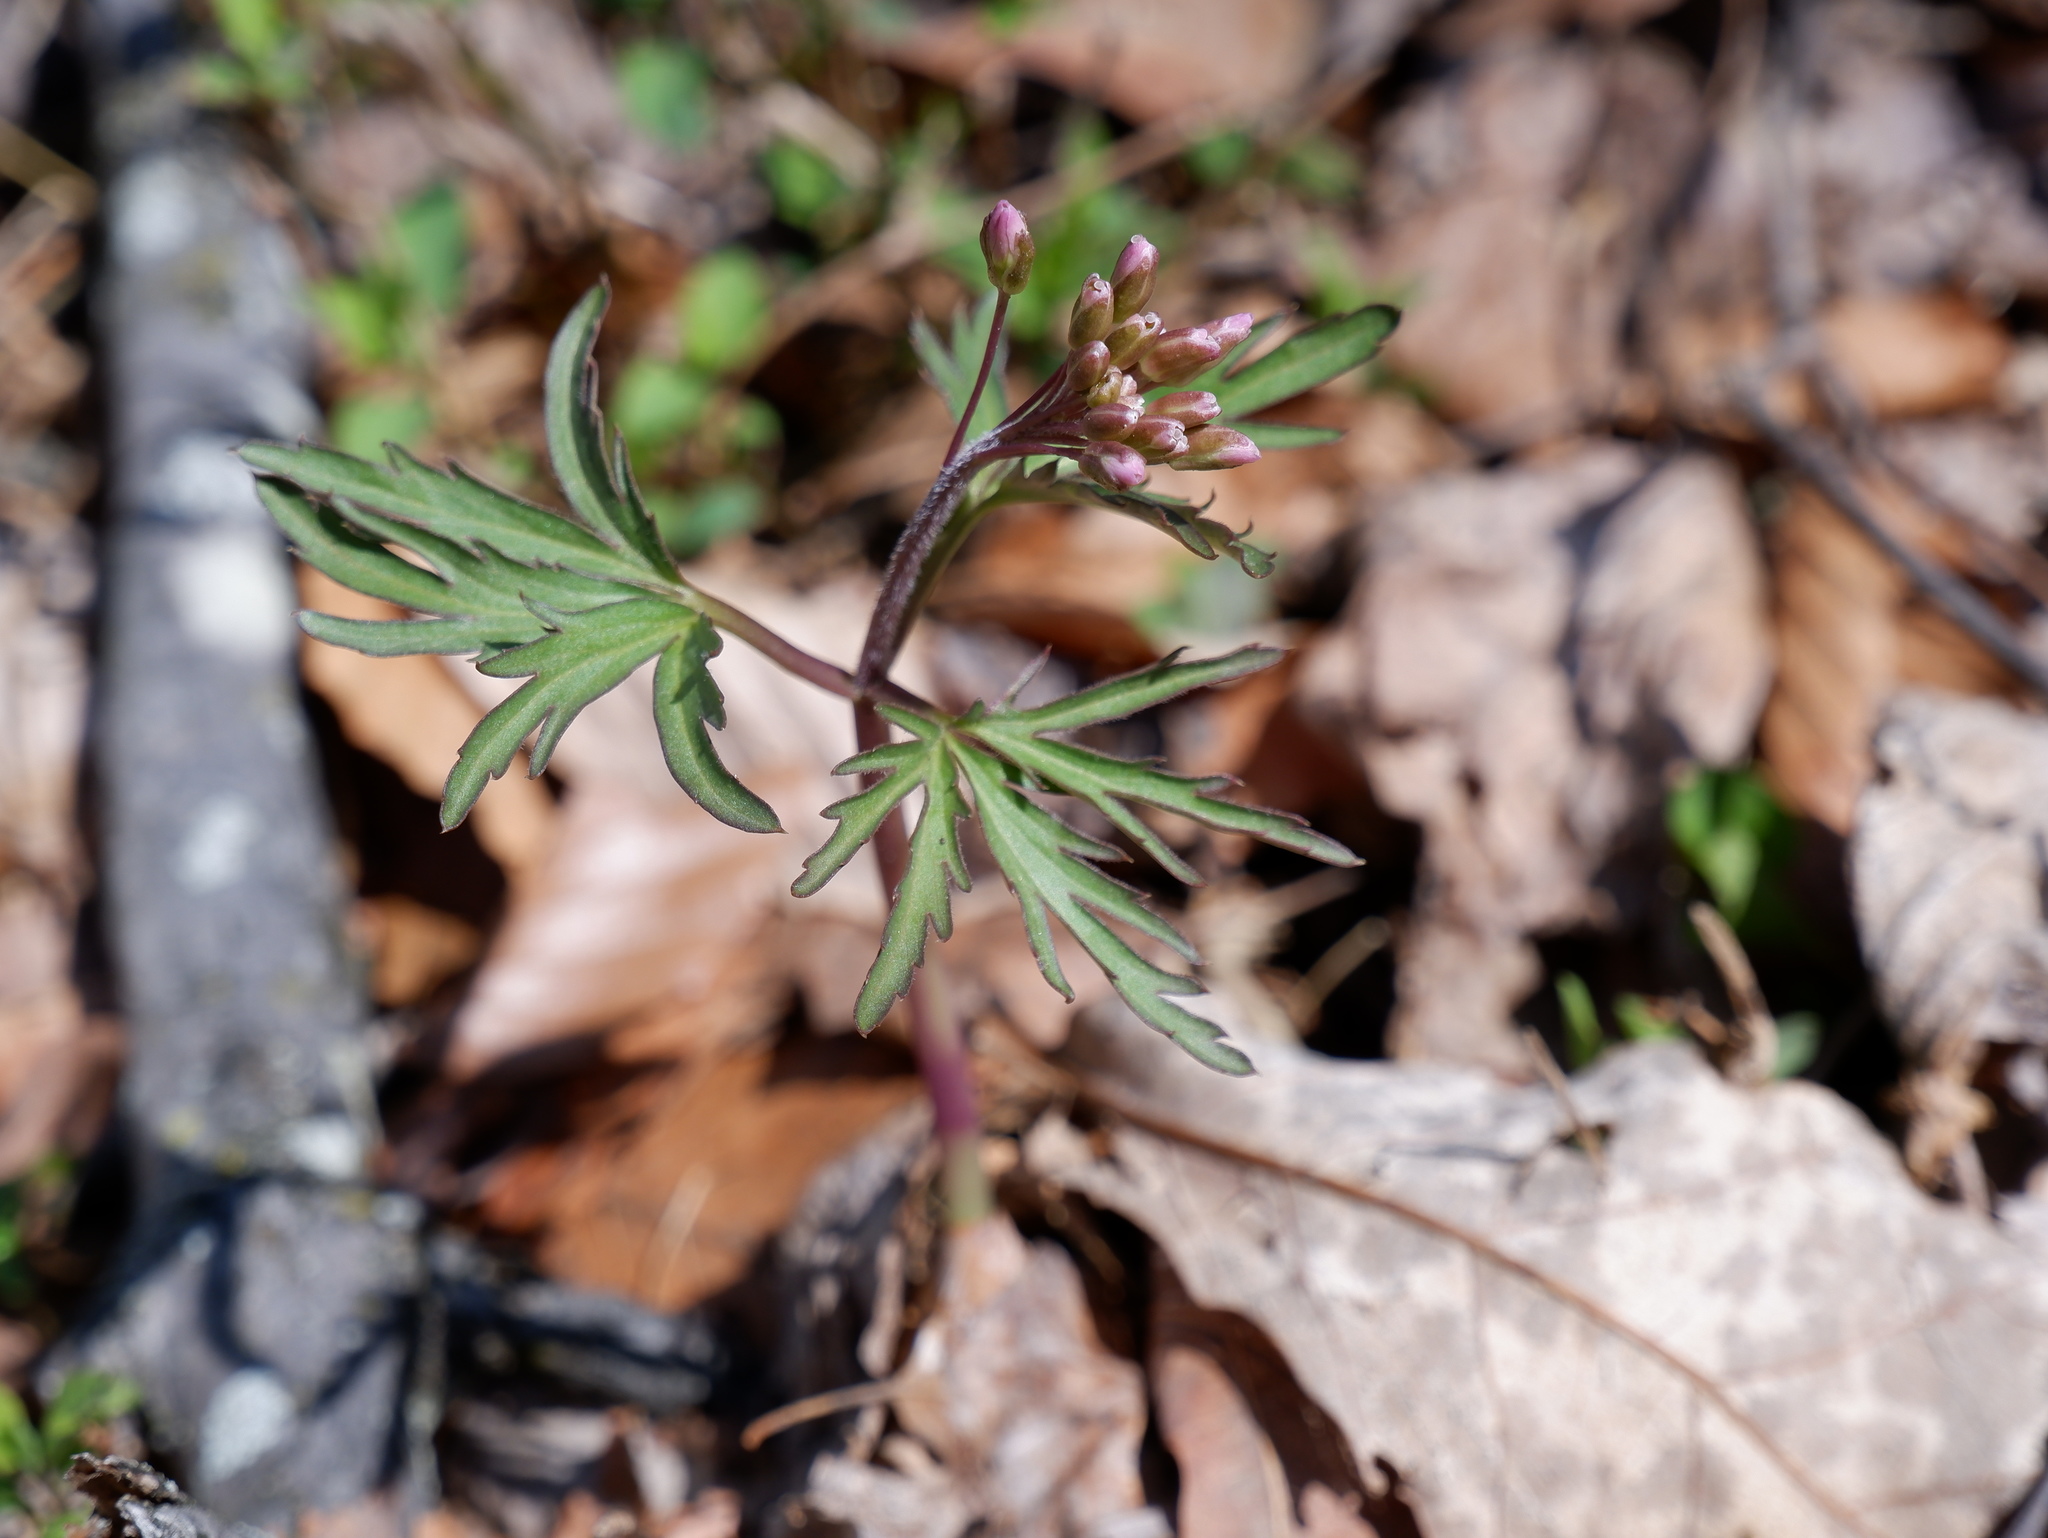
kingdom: Plantae
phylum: Tracheophyta
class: Magnoliopsida
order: Brassicales
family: Brassicaceae
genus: Cardamine
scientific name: Cardamine concatenata
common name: Cut-leaf toothcup
